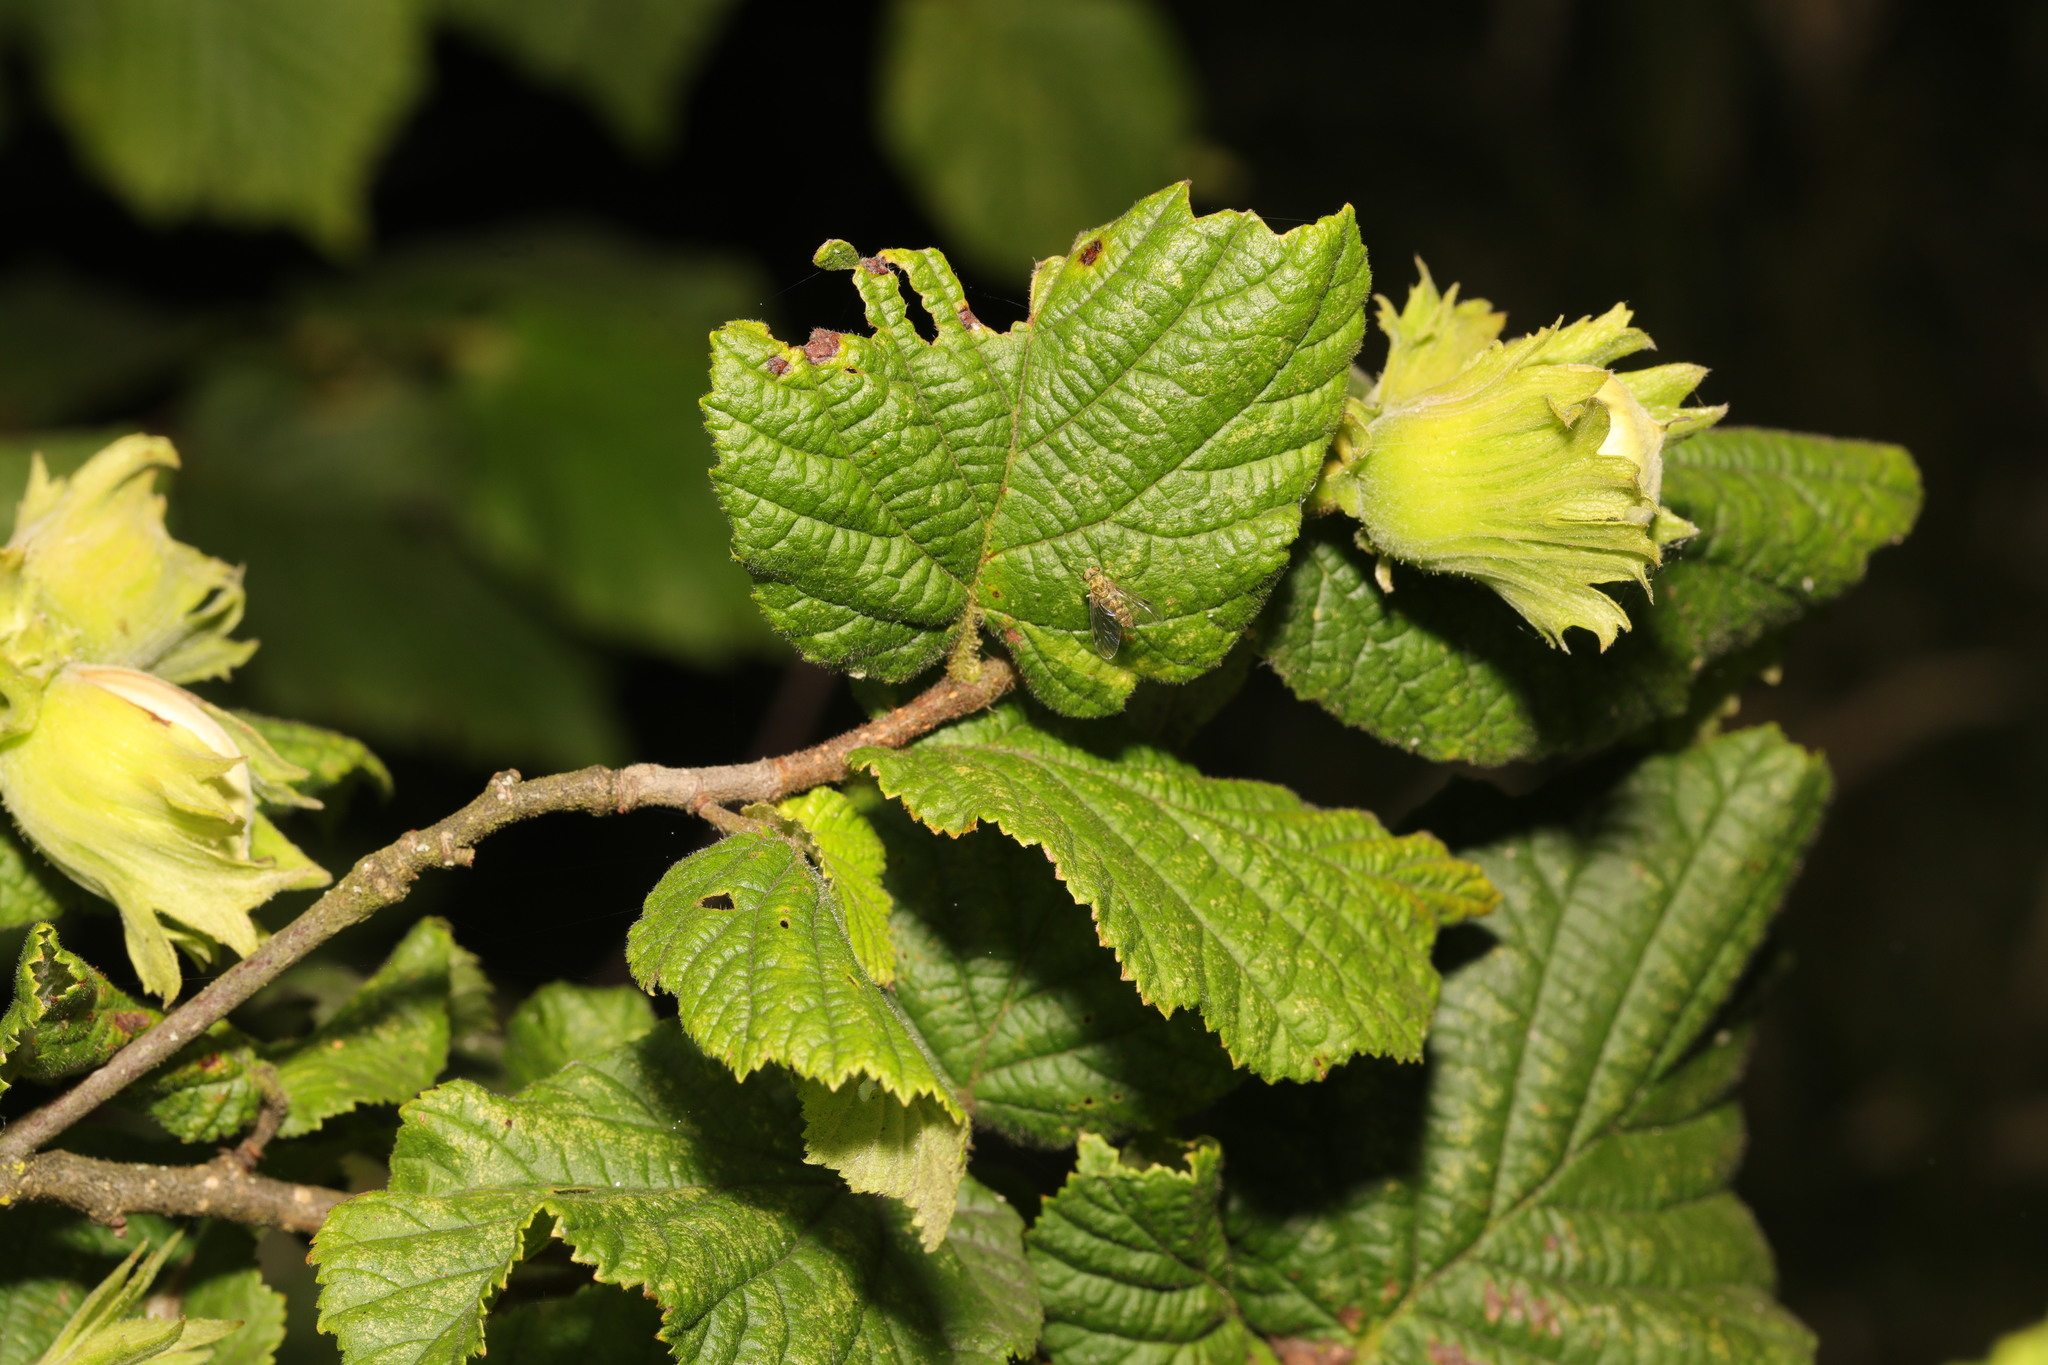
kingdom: Plantae
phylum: Tracheophyta
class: Magnoliopsida
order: Fagales
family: Betulaceae
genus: Corylus
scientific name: Corylus avellana
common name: European hazel
